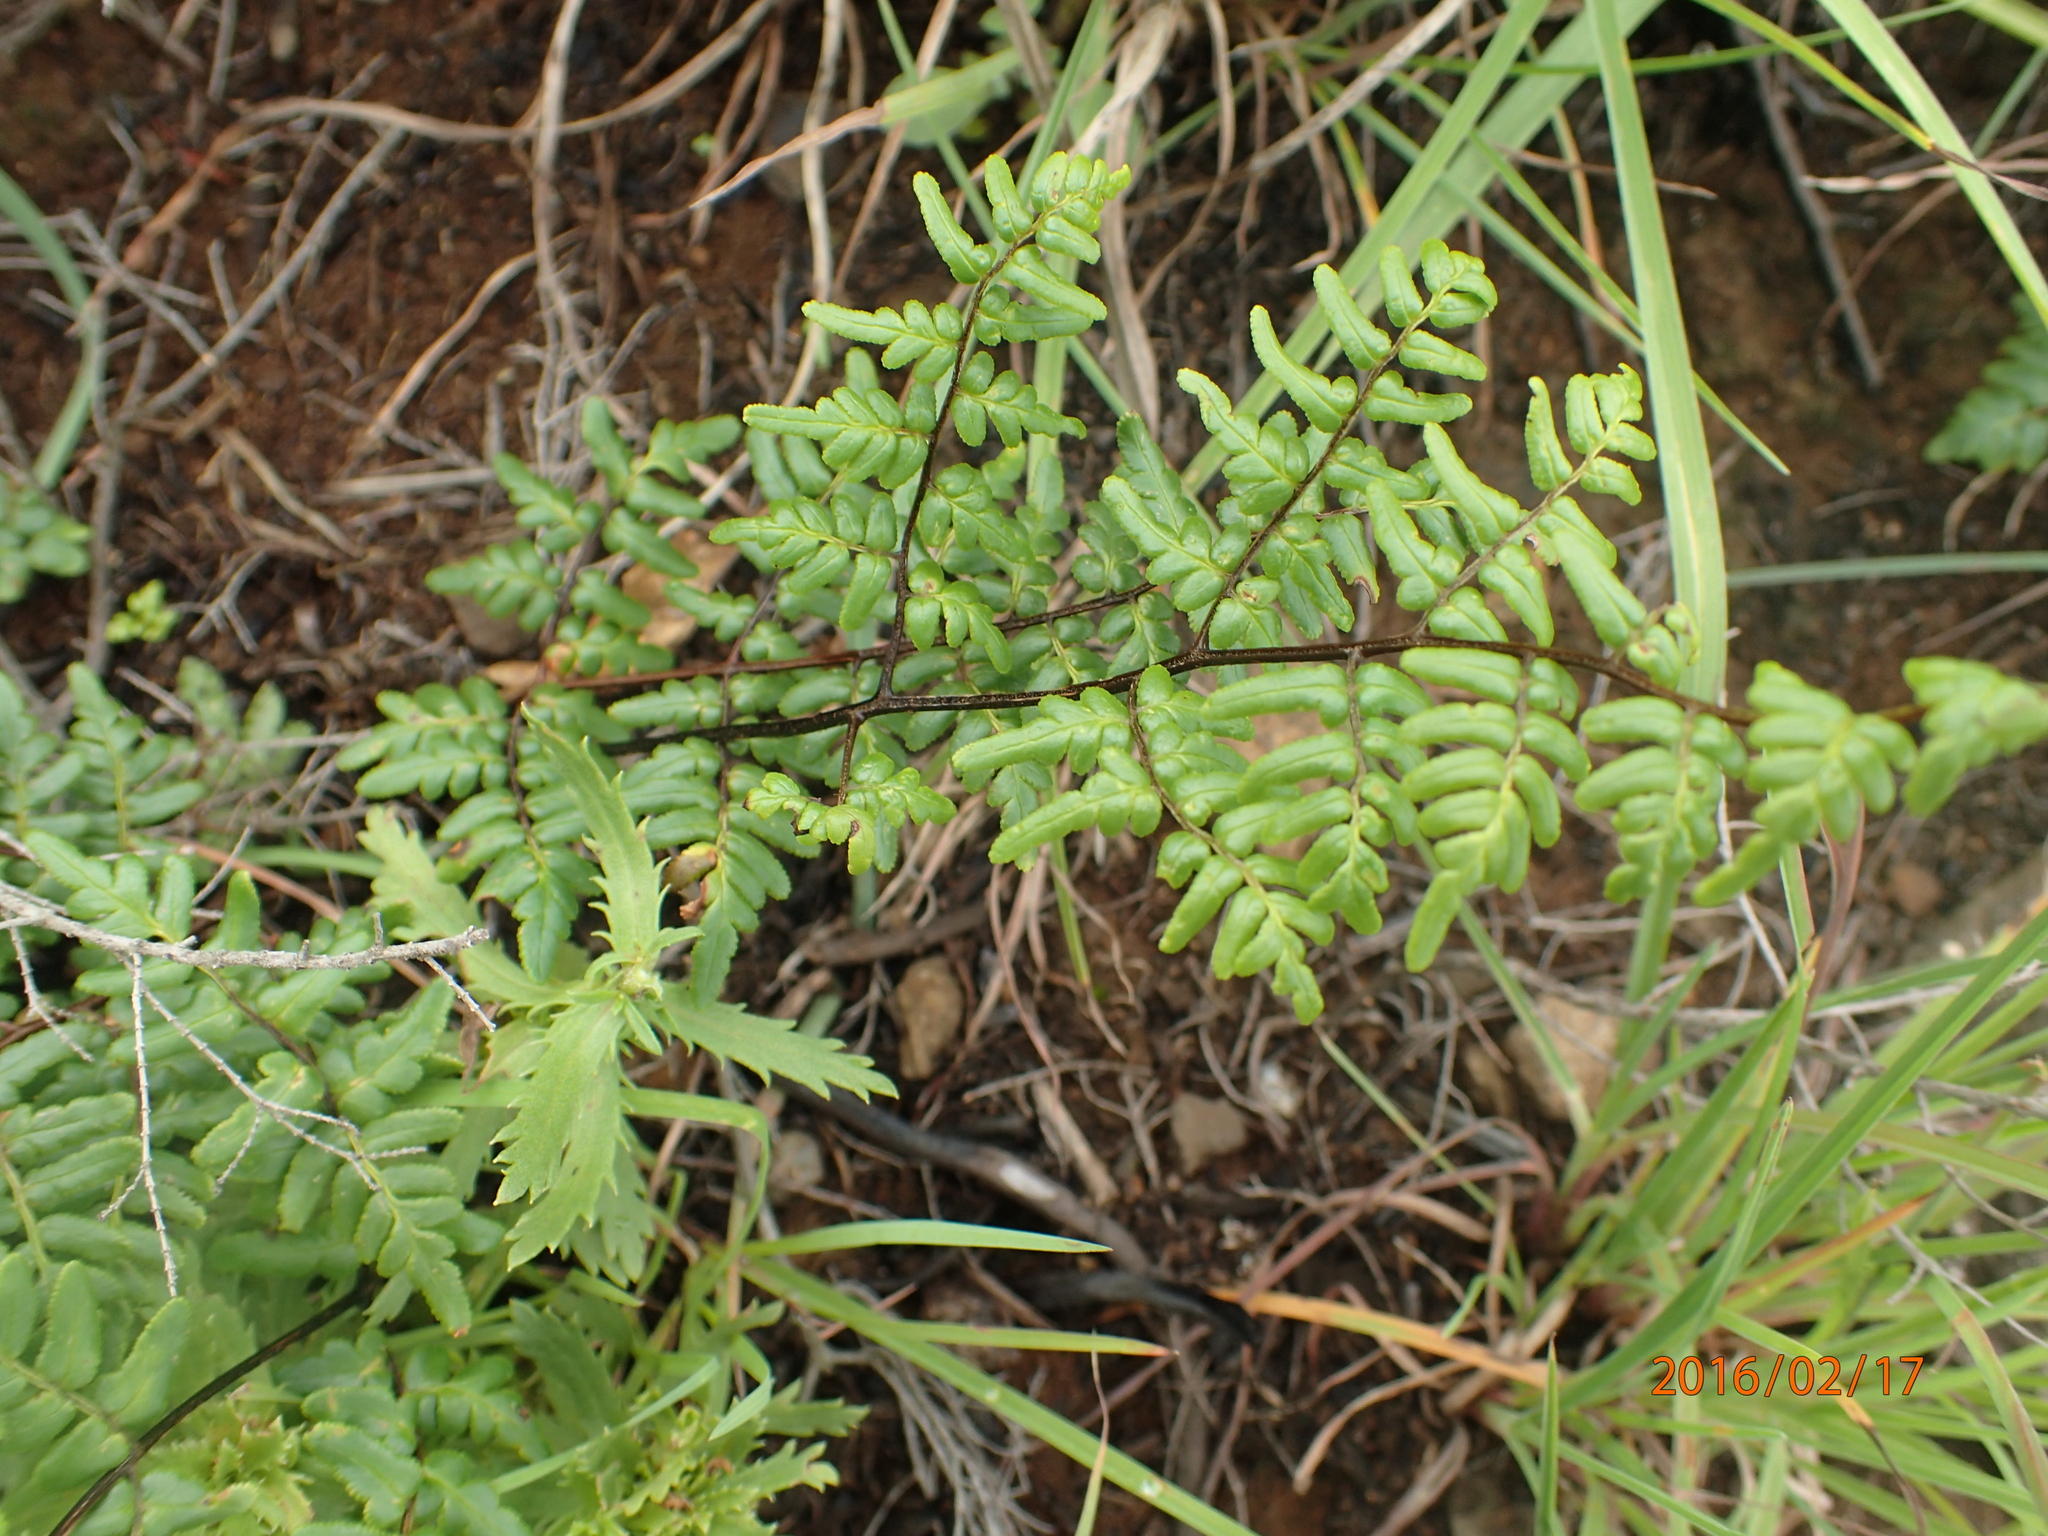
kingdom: Plantae
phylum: Tracheophyta
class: Polypodiopsida
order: Polypodiales
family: Pteridaceae
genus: Cheilanthes
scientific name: Cheilanthes quadripinnata
